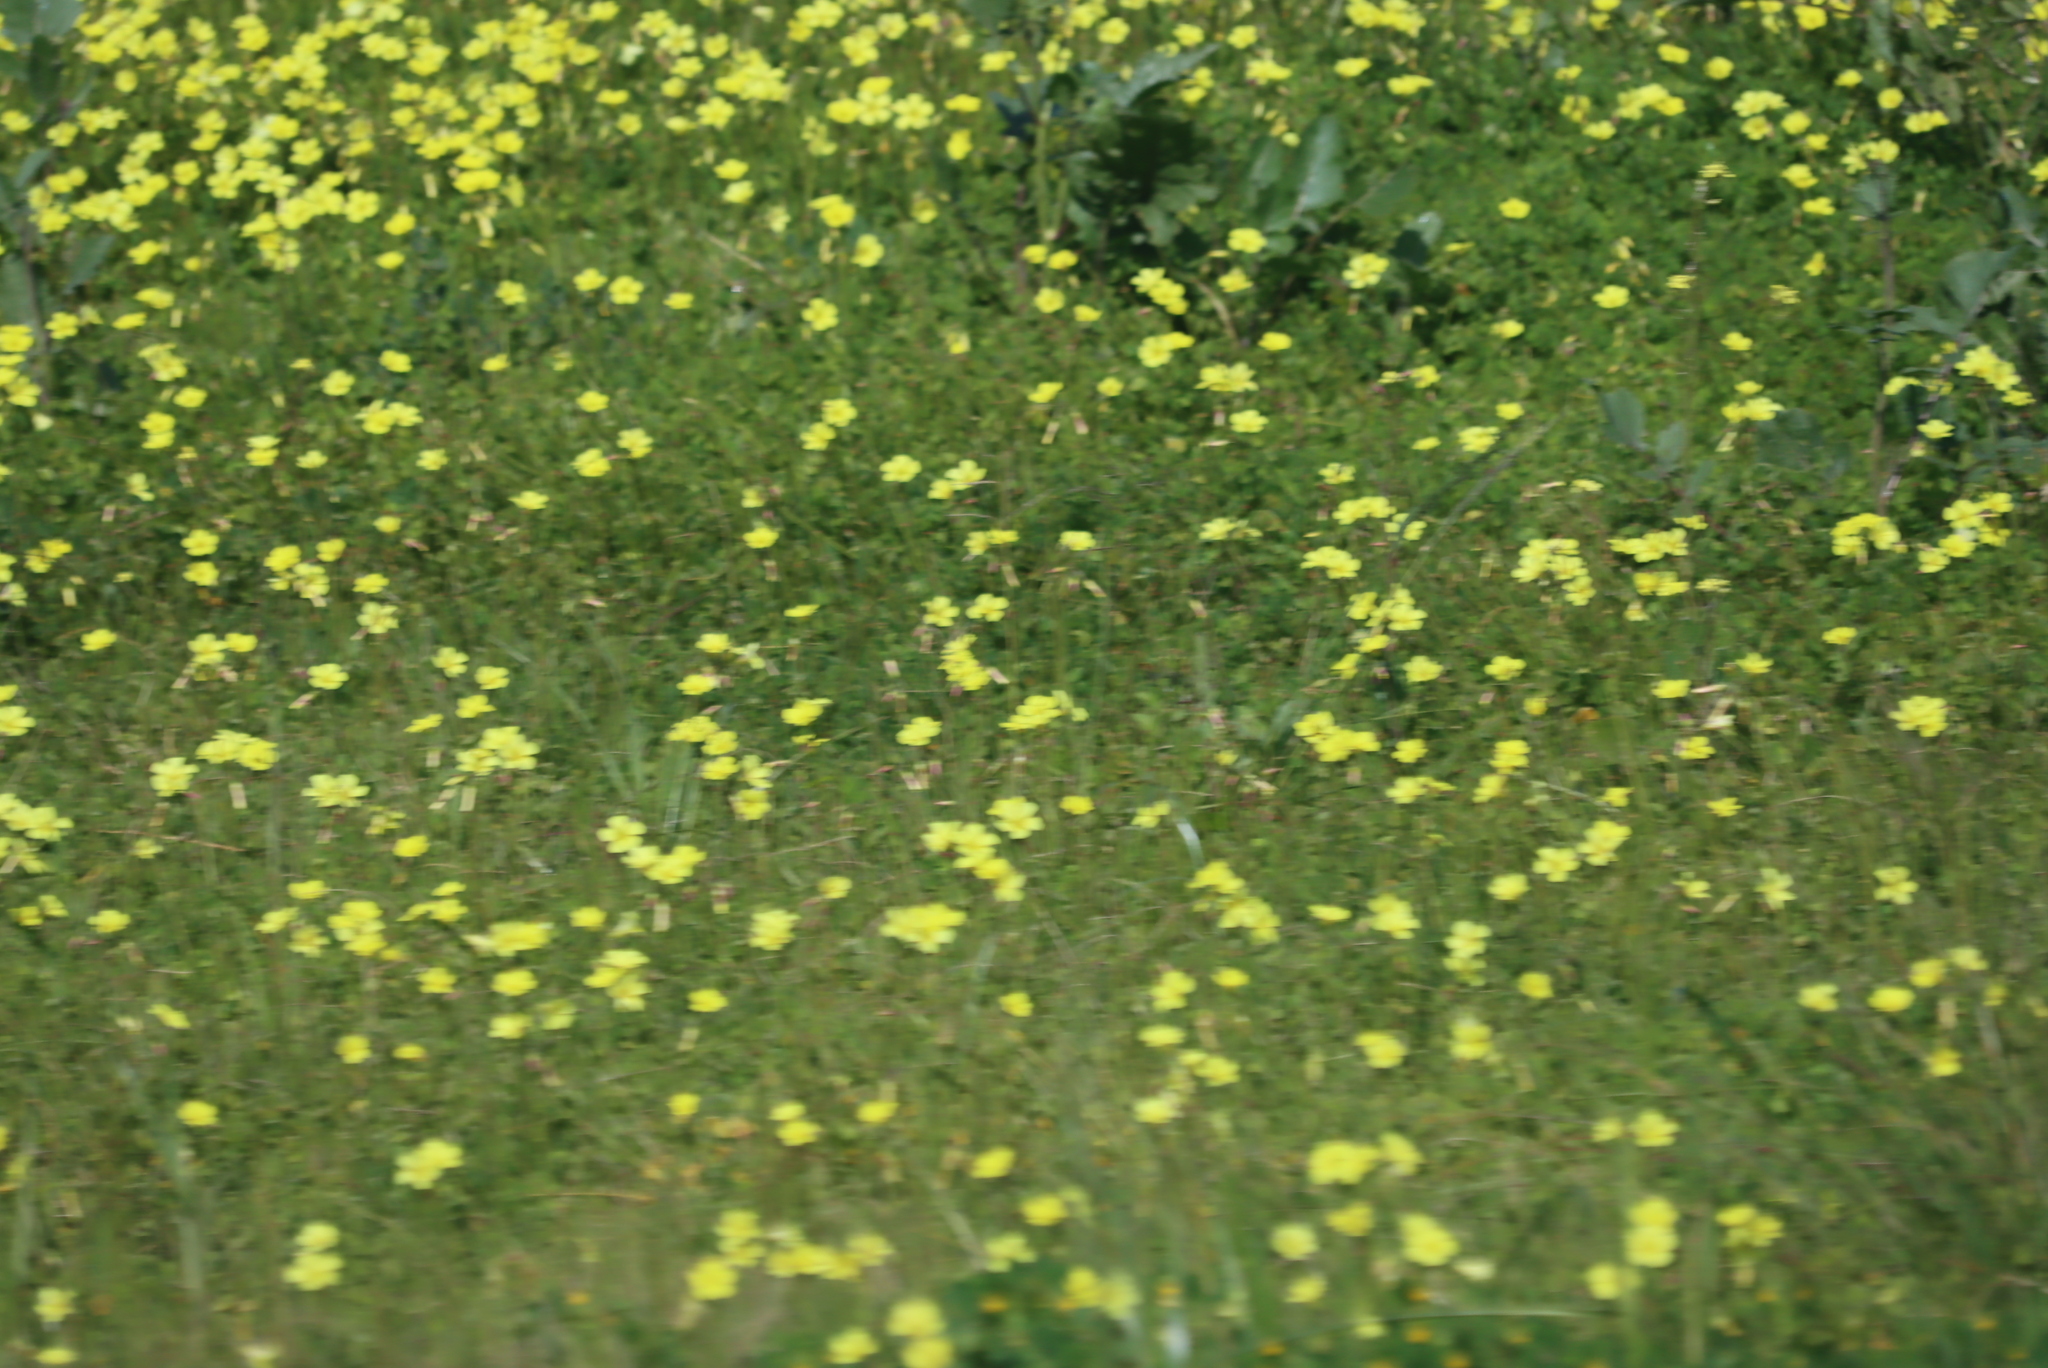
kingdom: Plantae
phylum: Tracheophyta
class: Magnoliopsida
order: Oxalidales
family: Oxalidaceae
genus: Oxalis
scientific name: Oxalis pes-caprae
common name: Bermuda-buttercup
